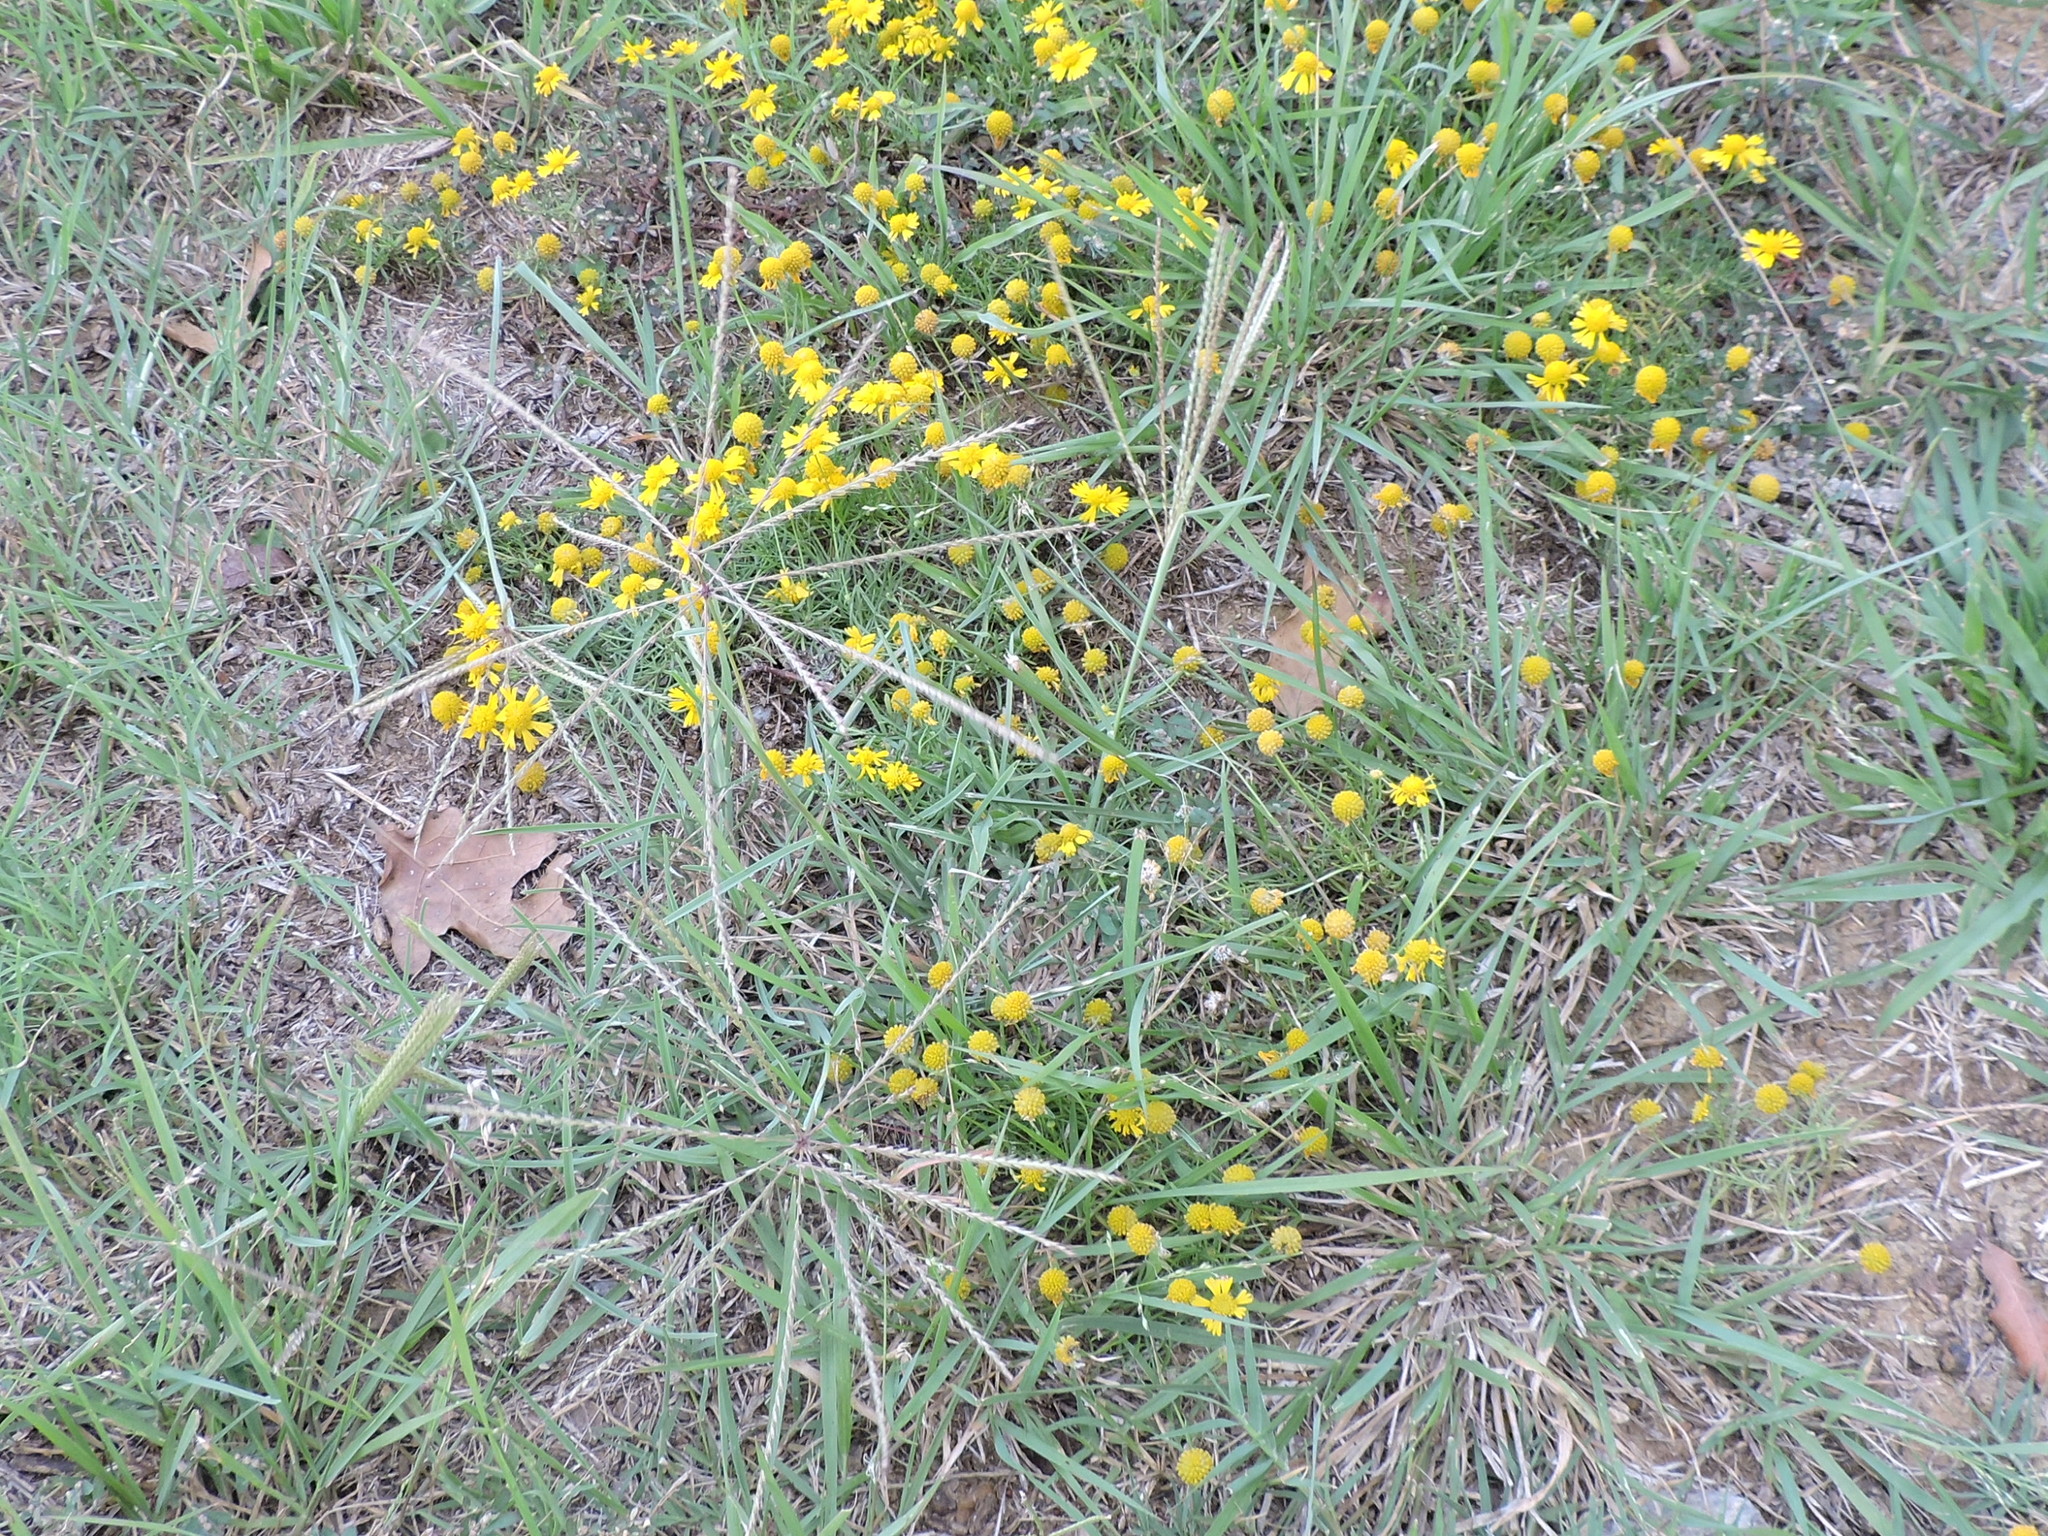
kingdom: Plantae
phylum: Tracheophyta
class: Liliopsida
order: Poales
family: Poaceae
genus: Chloris
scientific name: Chloris verticillata
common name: Tumble windmill grass
